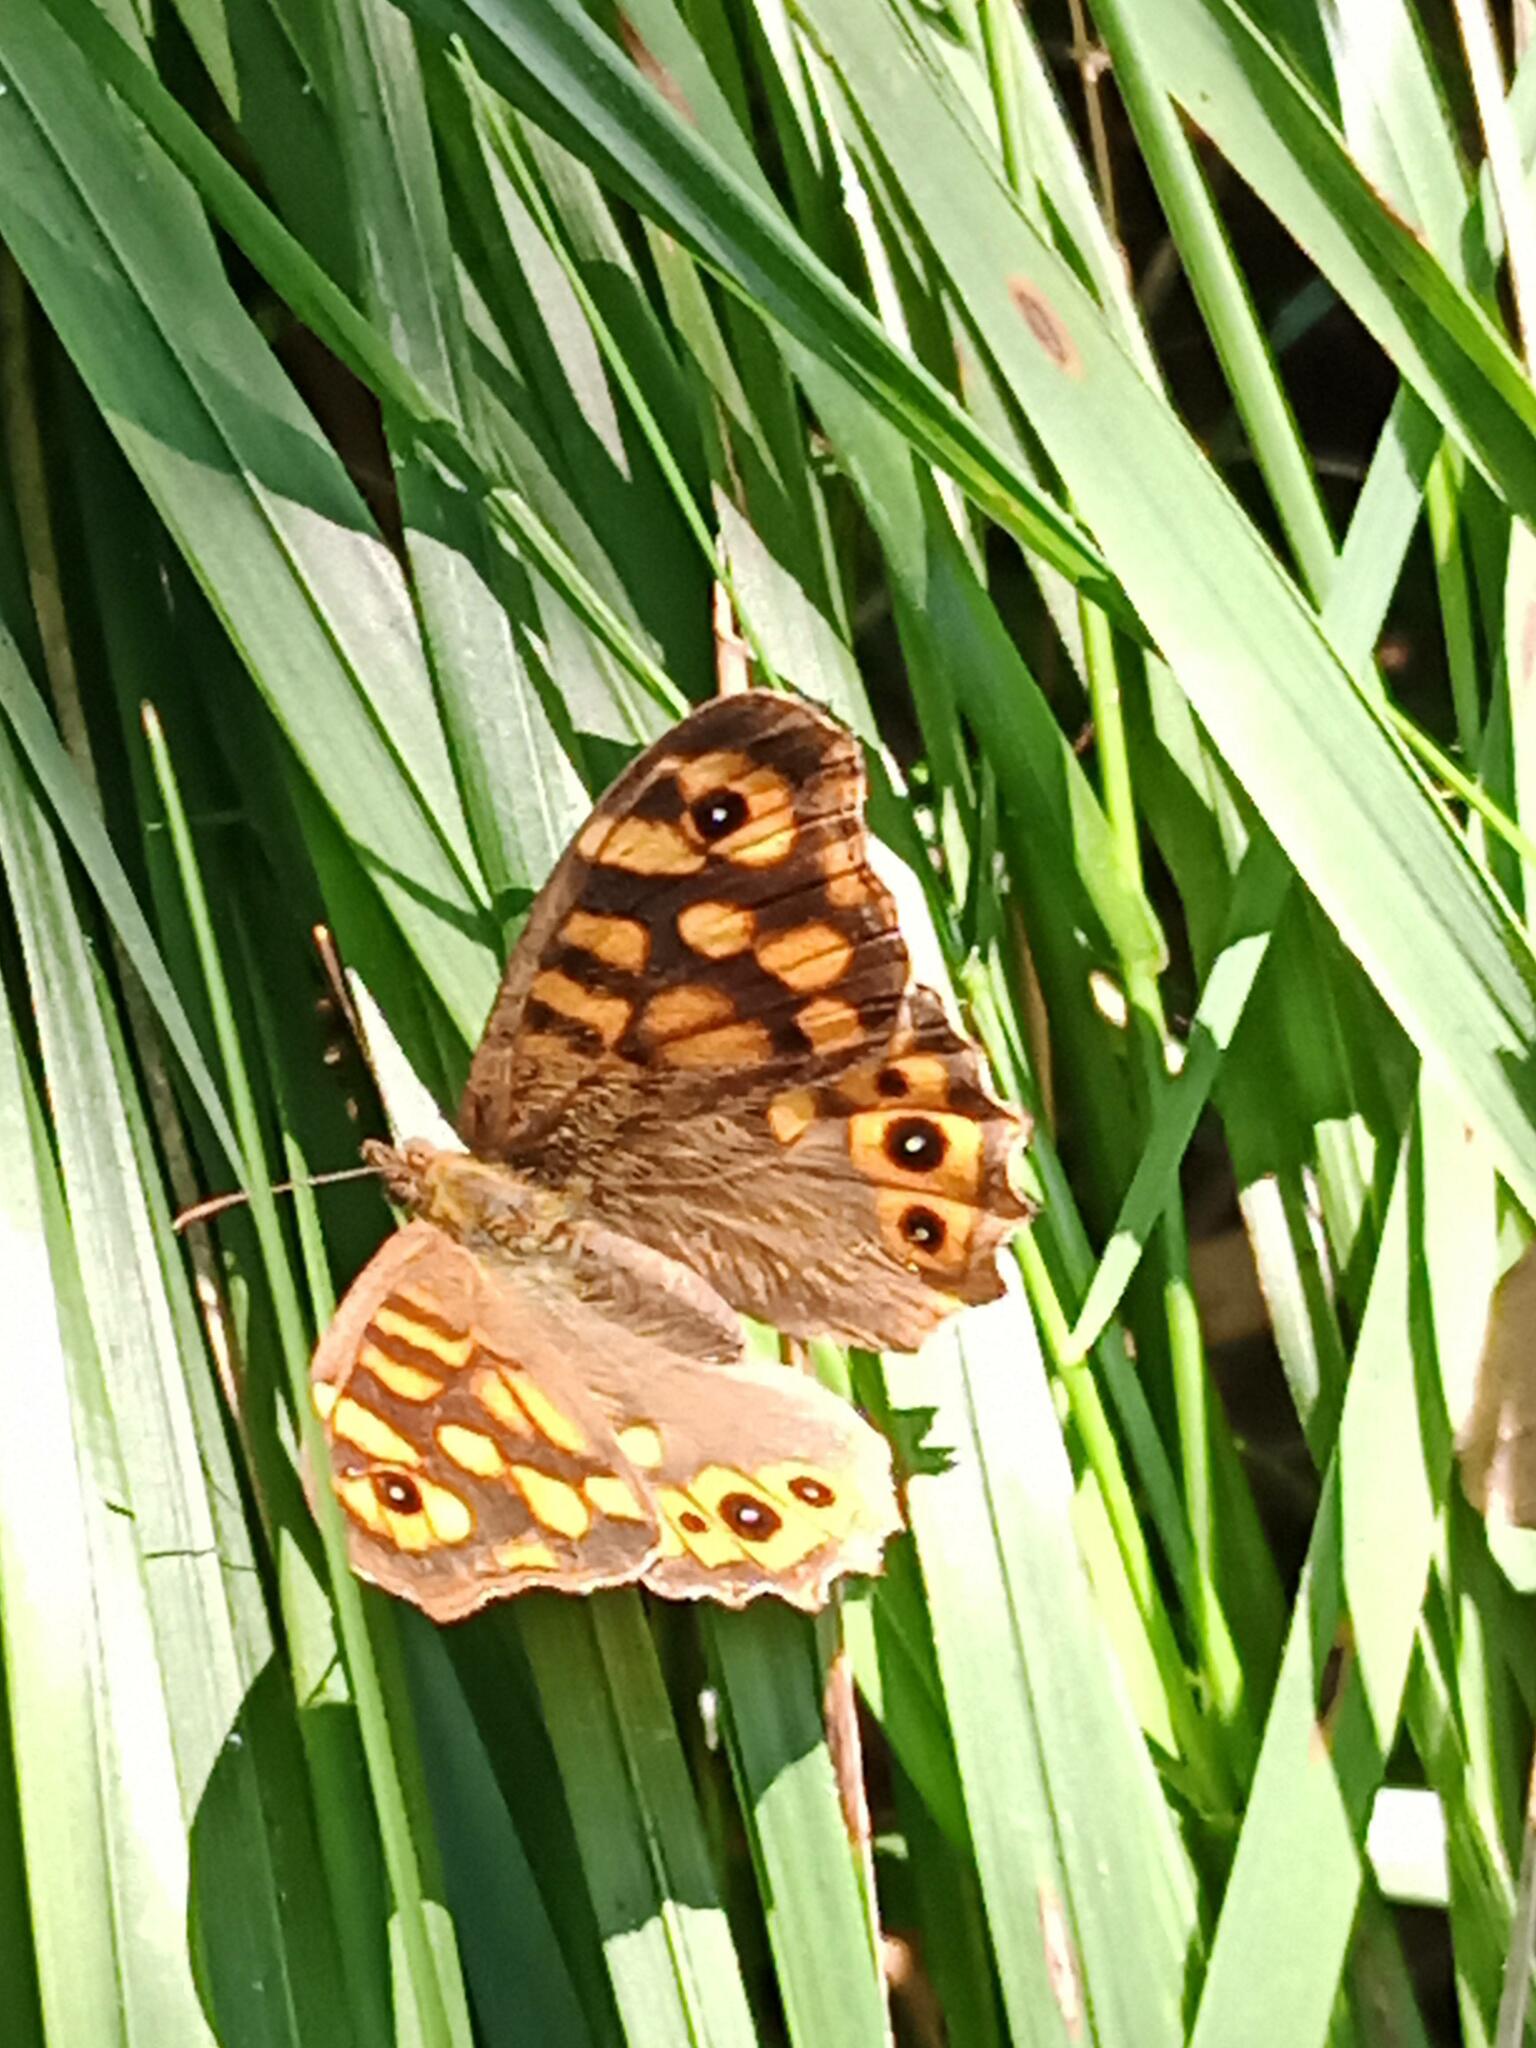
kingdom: Animalia
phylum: Arthropoda
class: Insecta
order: Lepidoptera
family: Nymphalidae
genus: Pararge
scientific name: Pararge aegeria
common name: Speckled wood
